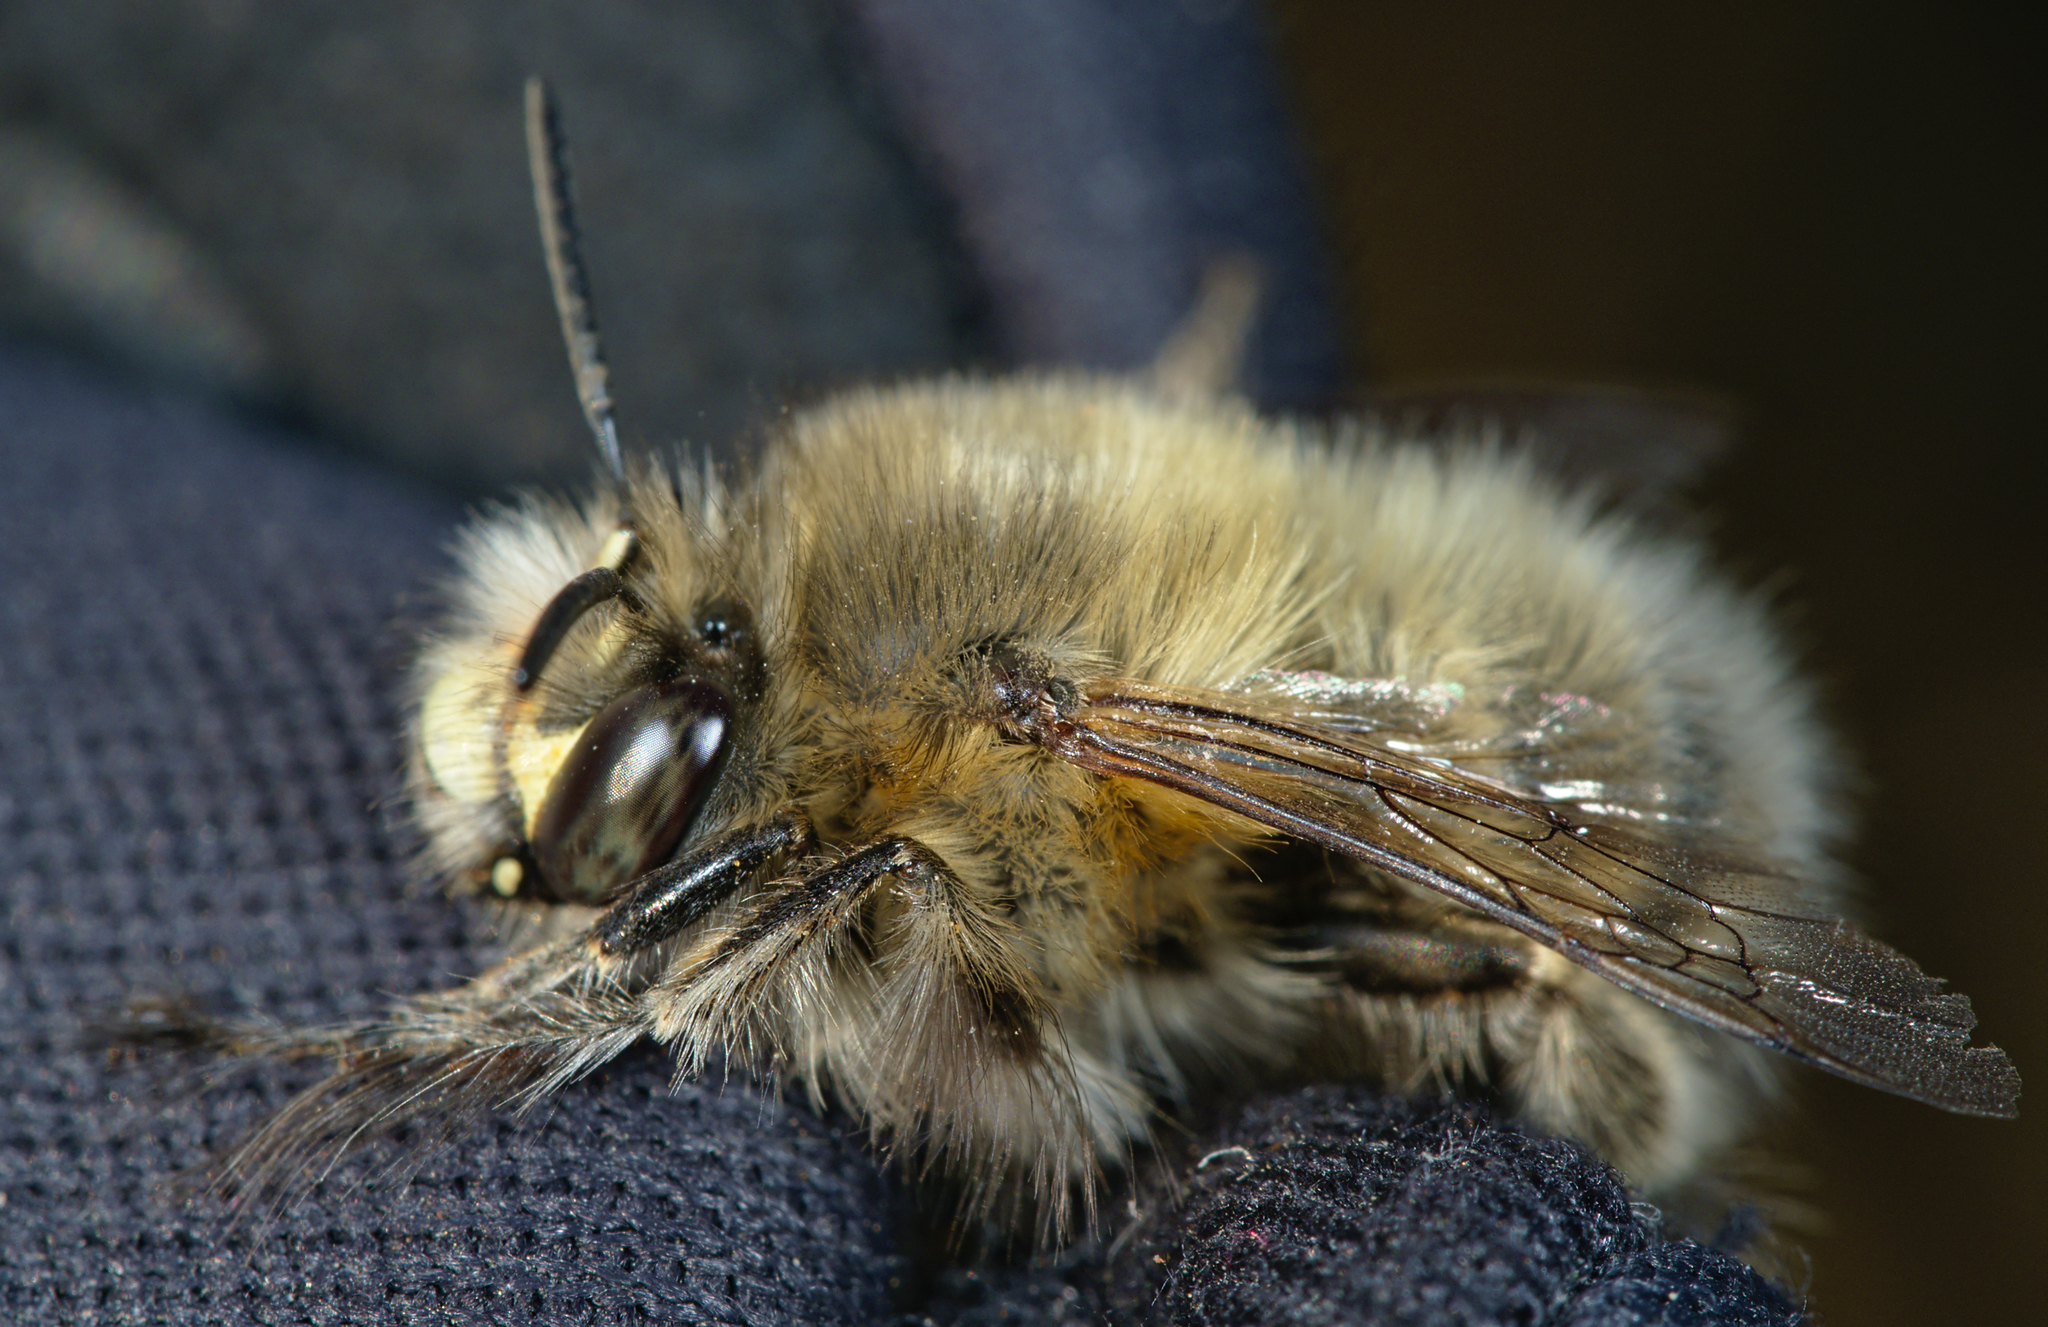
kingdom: Animalia
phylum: Arthropoda
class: Insecta
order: Hymenoptera
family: Apidae
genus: Anthophora
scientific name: Anthophora plumipes
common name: Hairy-footed flower bee
